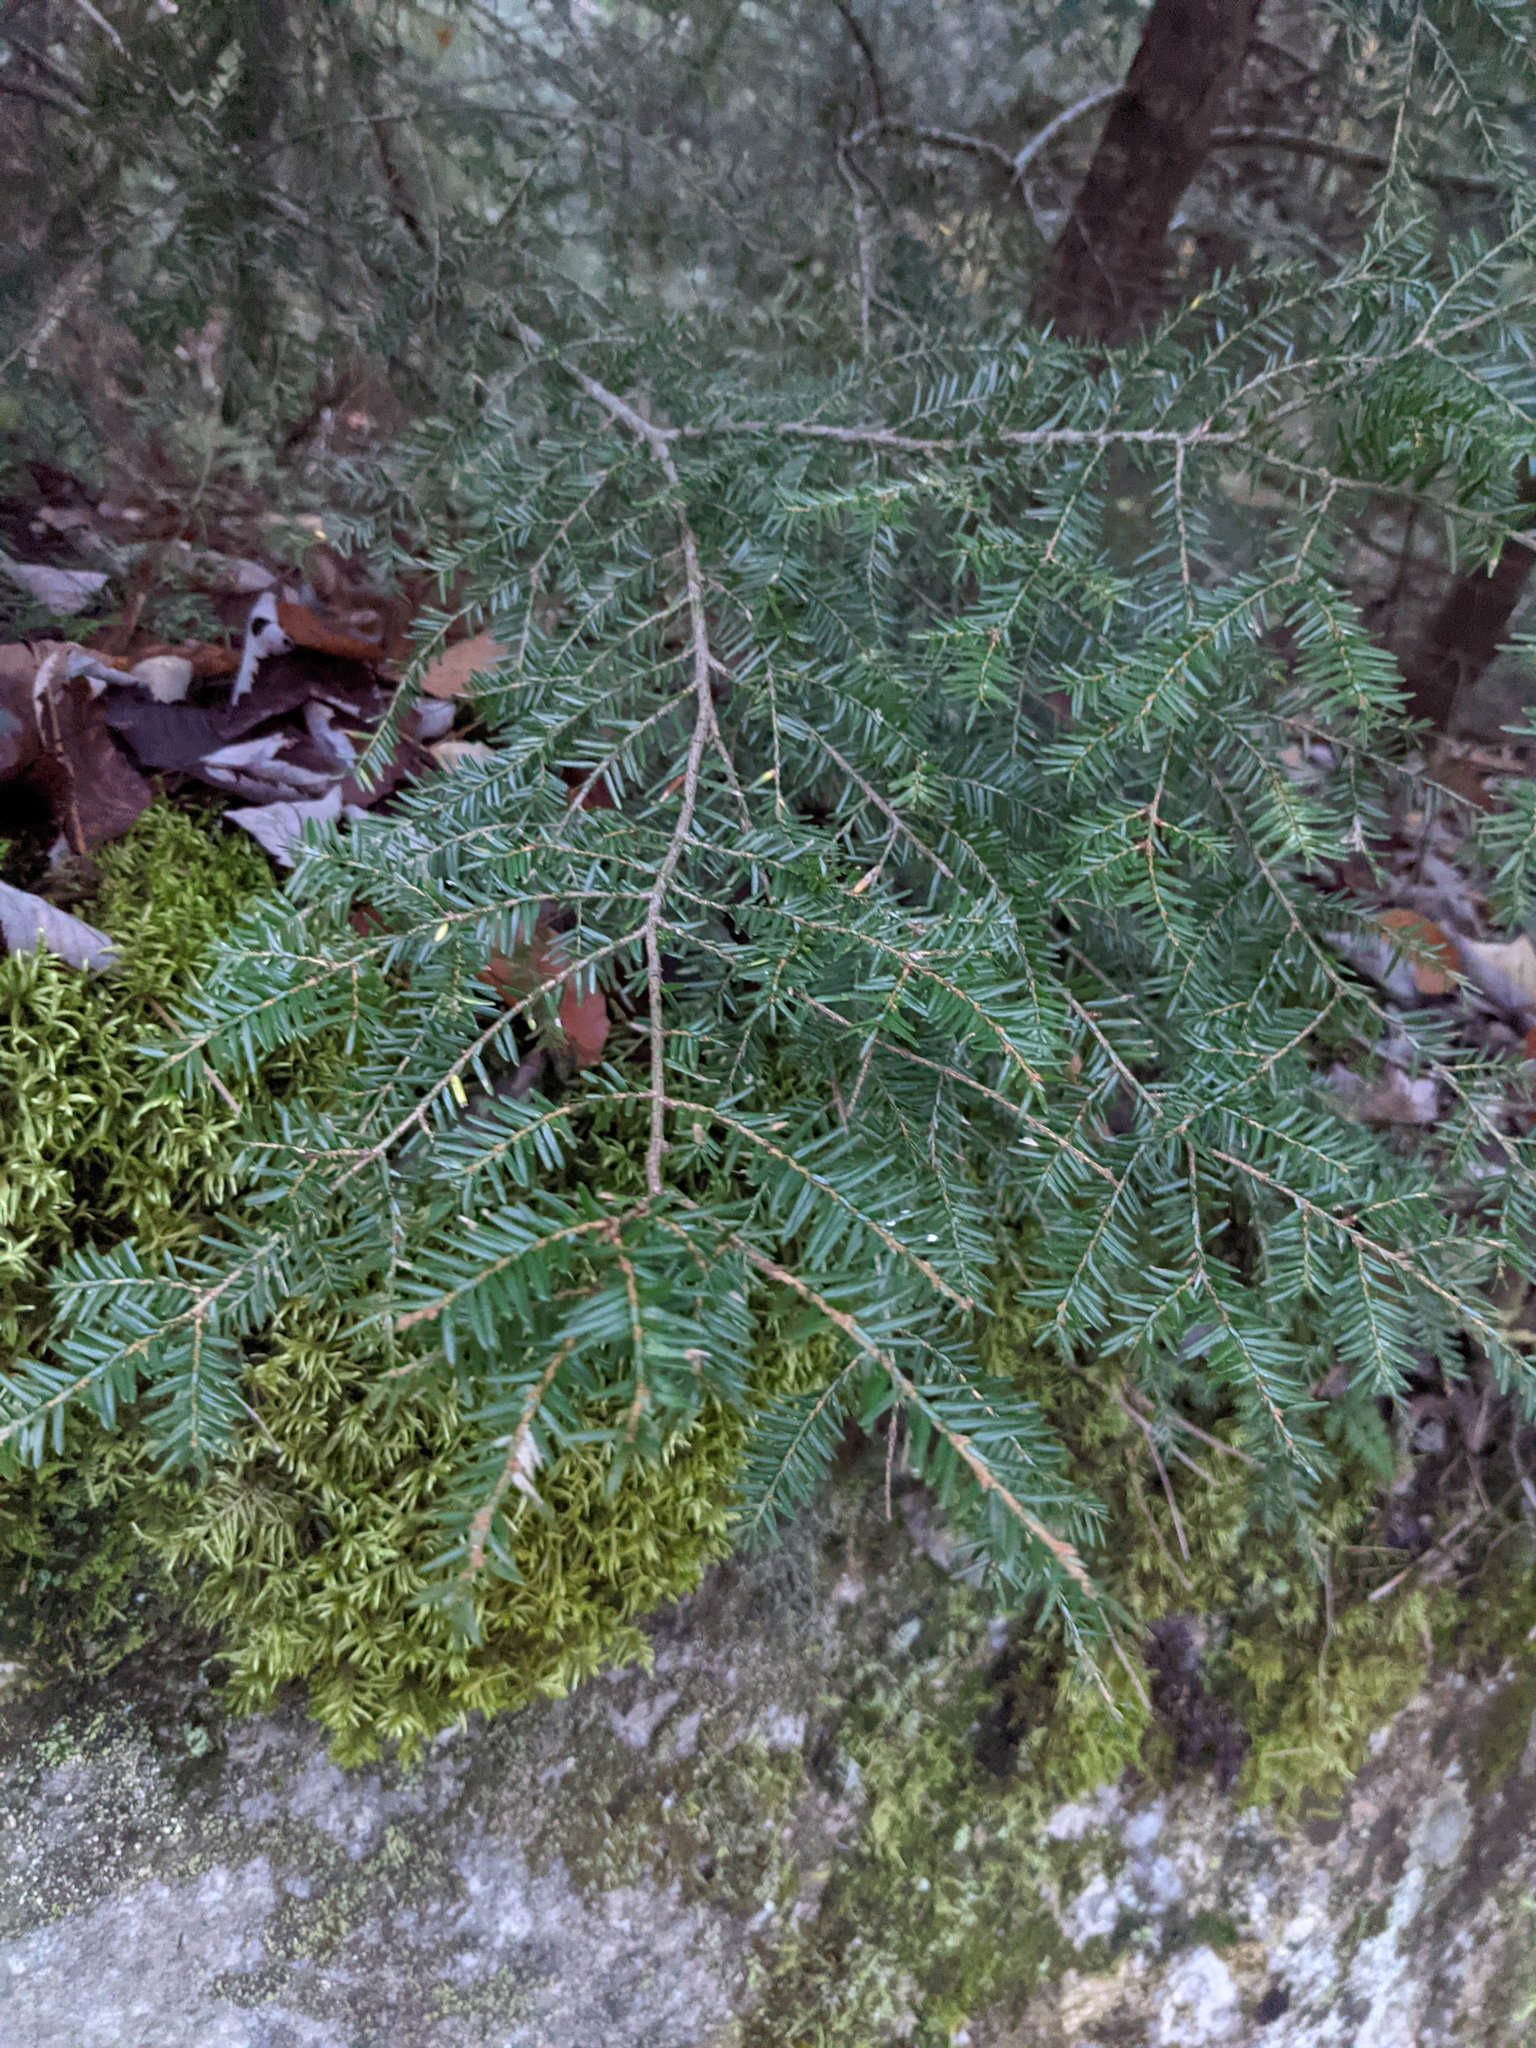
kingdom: Plantae
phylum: Tracheophyta
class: Pinopsida
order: Pinales
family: Pinaceae
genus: Tsuga
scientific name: Tsuga canadensis
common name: Eastern hemlock
